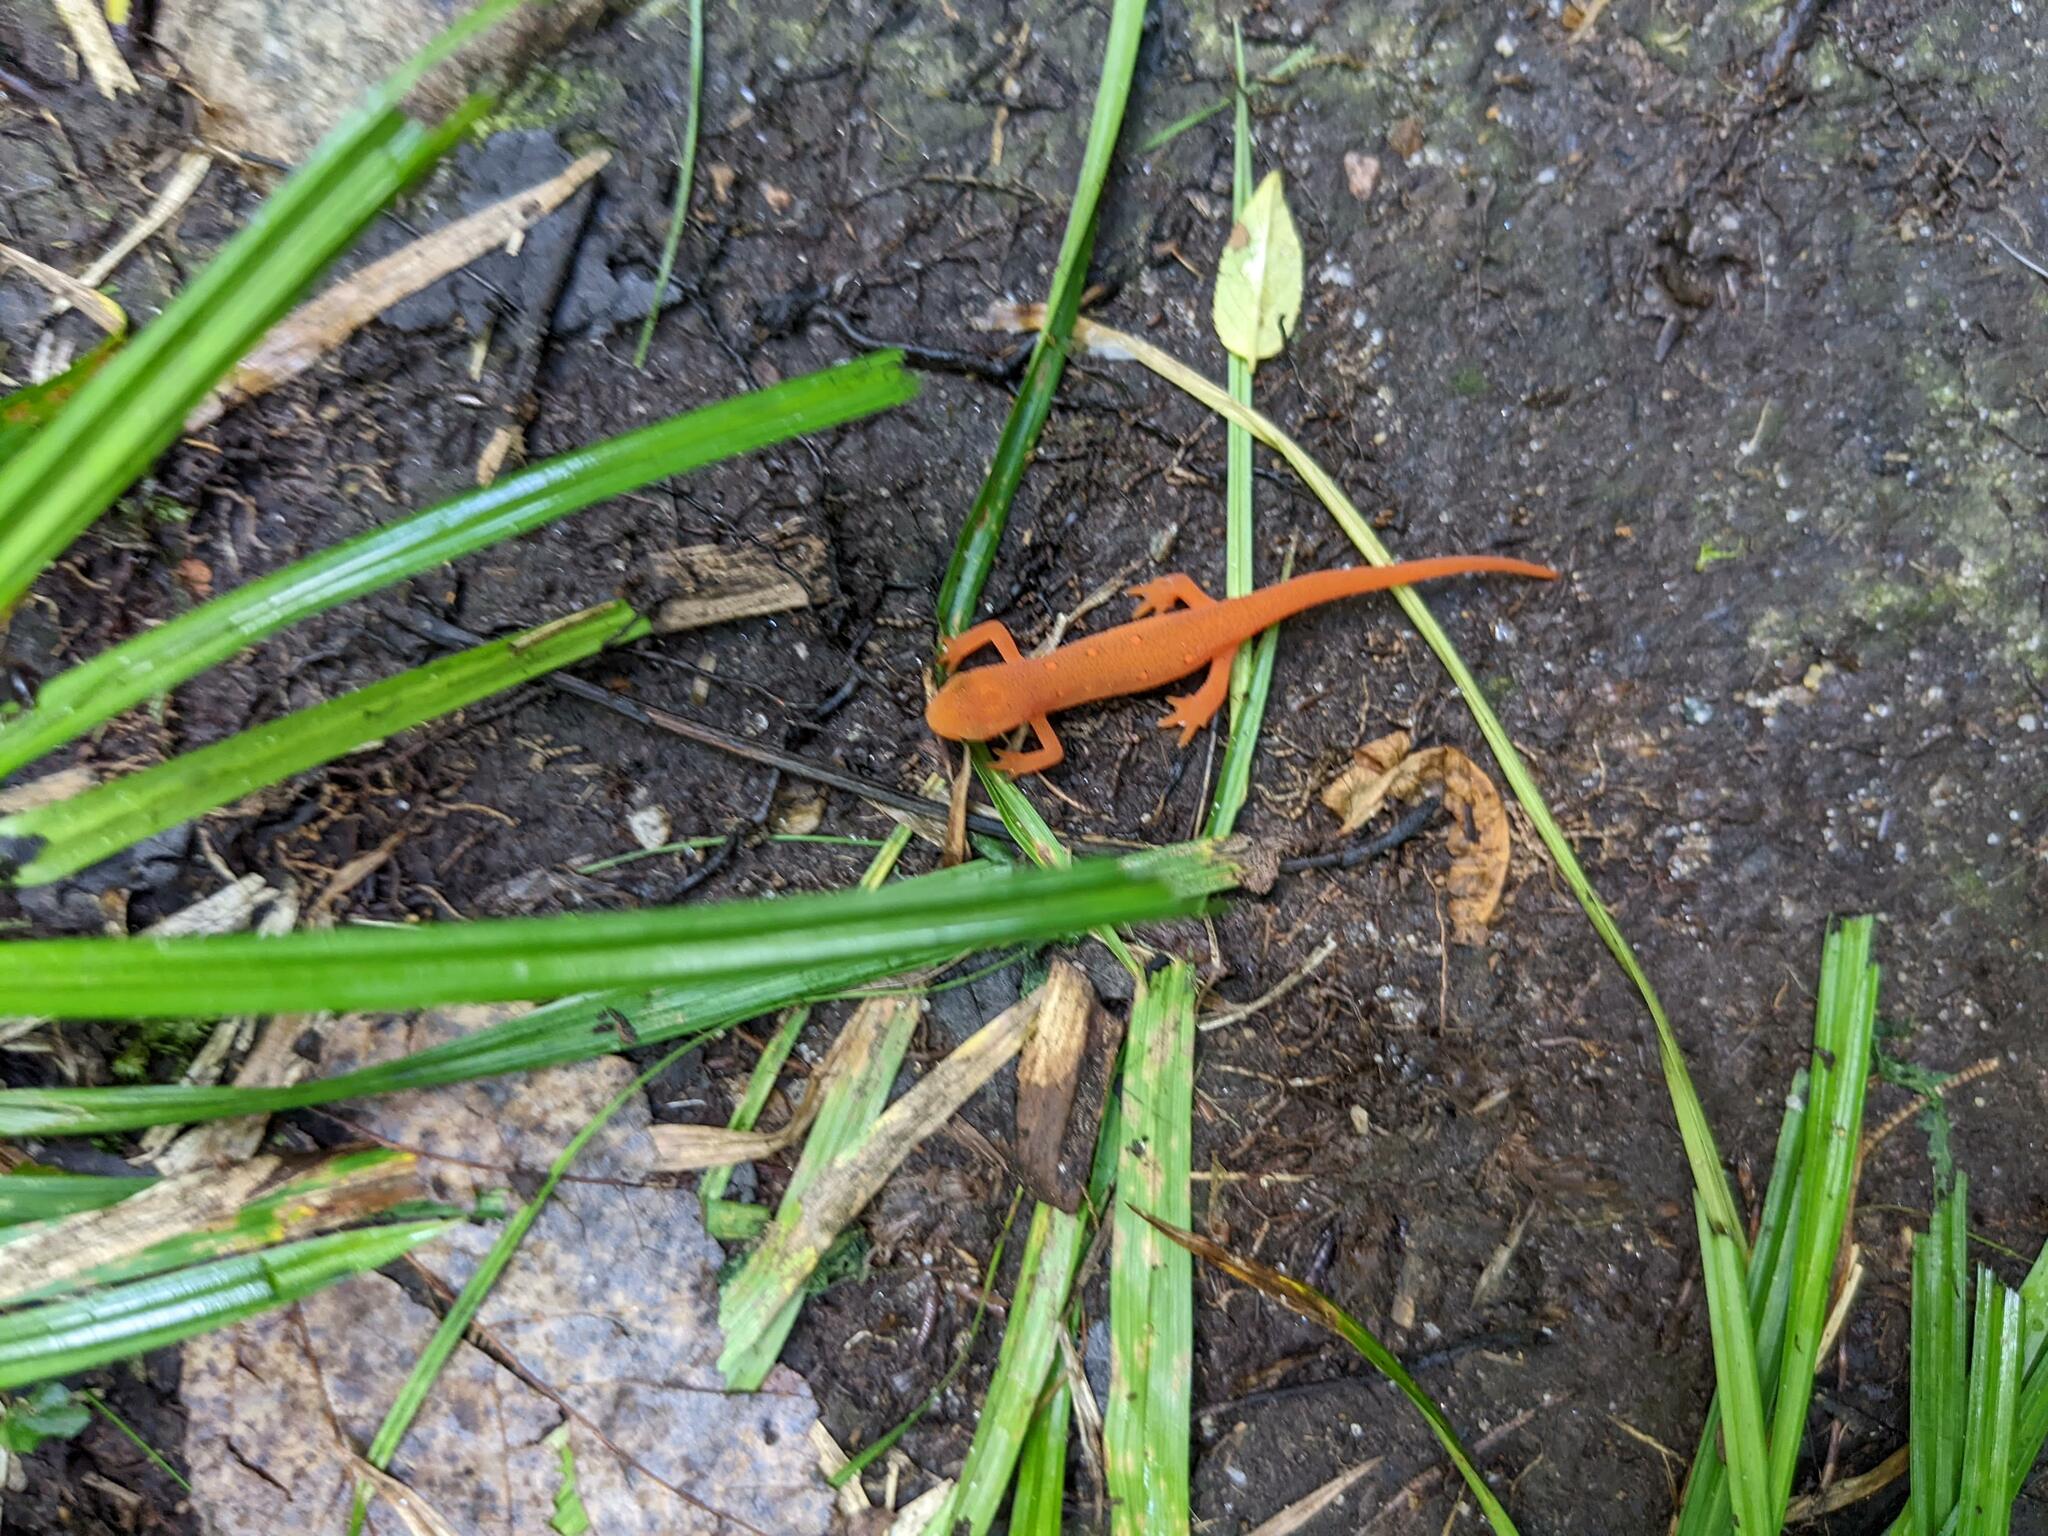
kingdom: Animalia
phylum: Chordata
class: Amphibia
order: Caudata
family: Salamandridae
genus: Notophthalmus
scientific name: Notophthalmus viridescens
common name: Eastern newt
